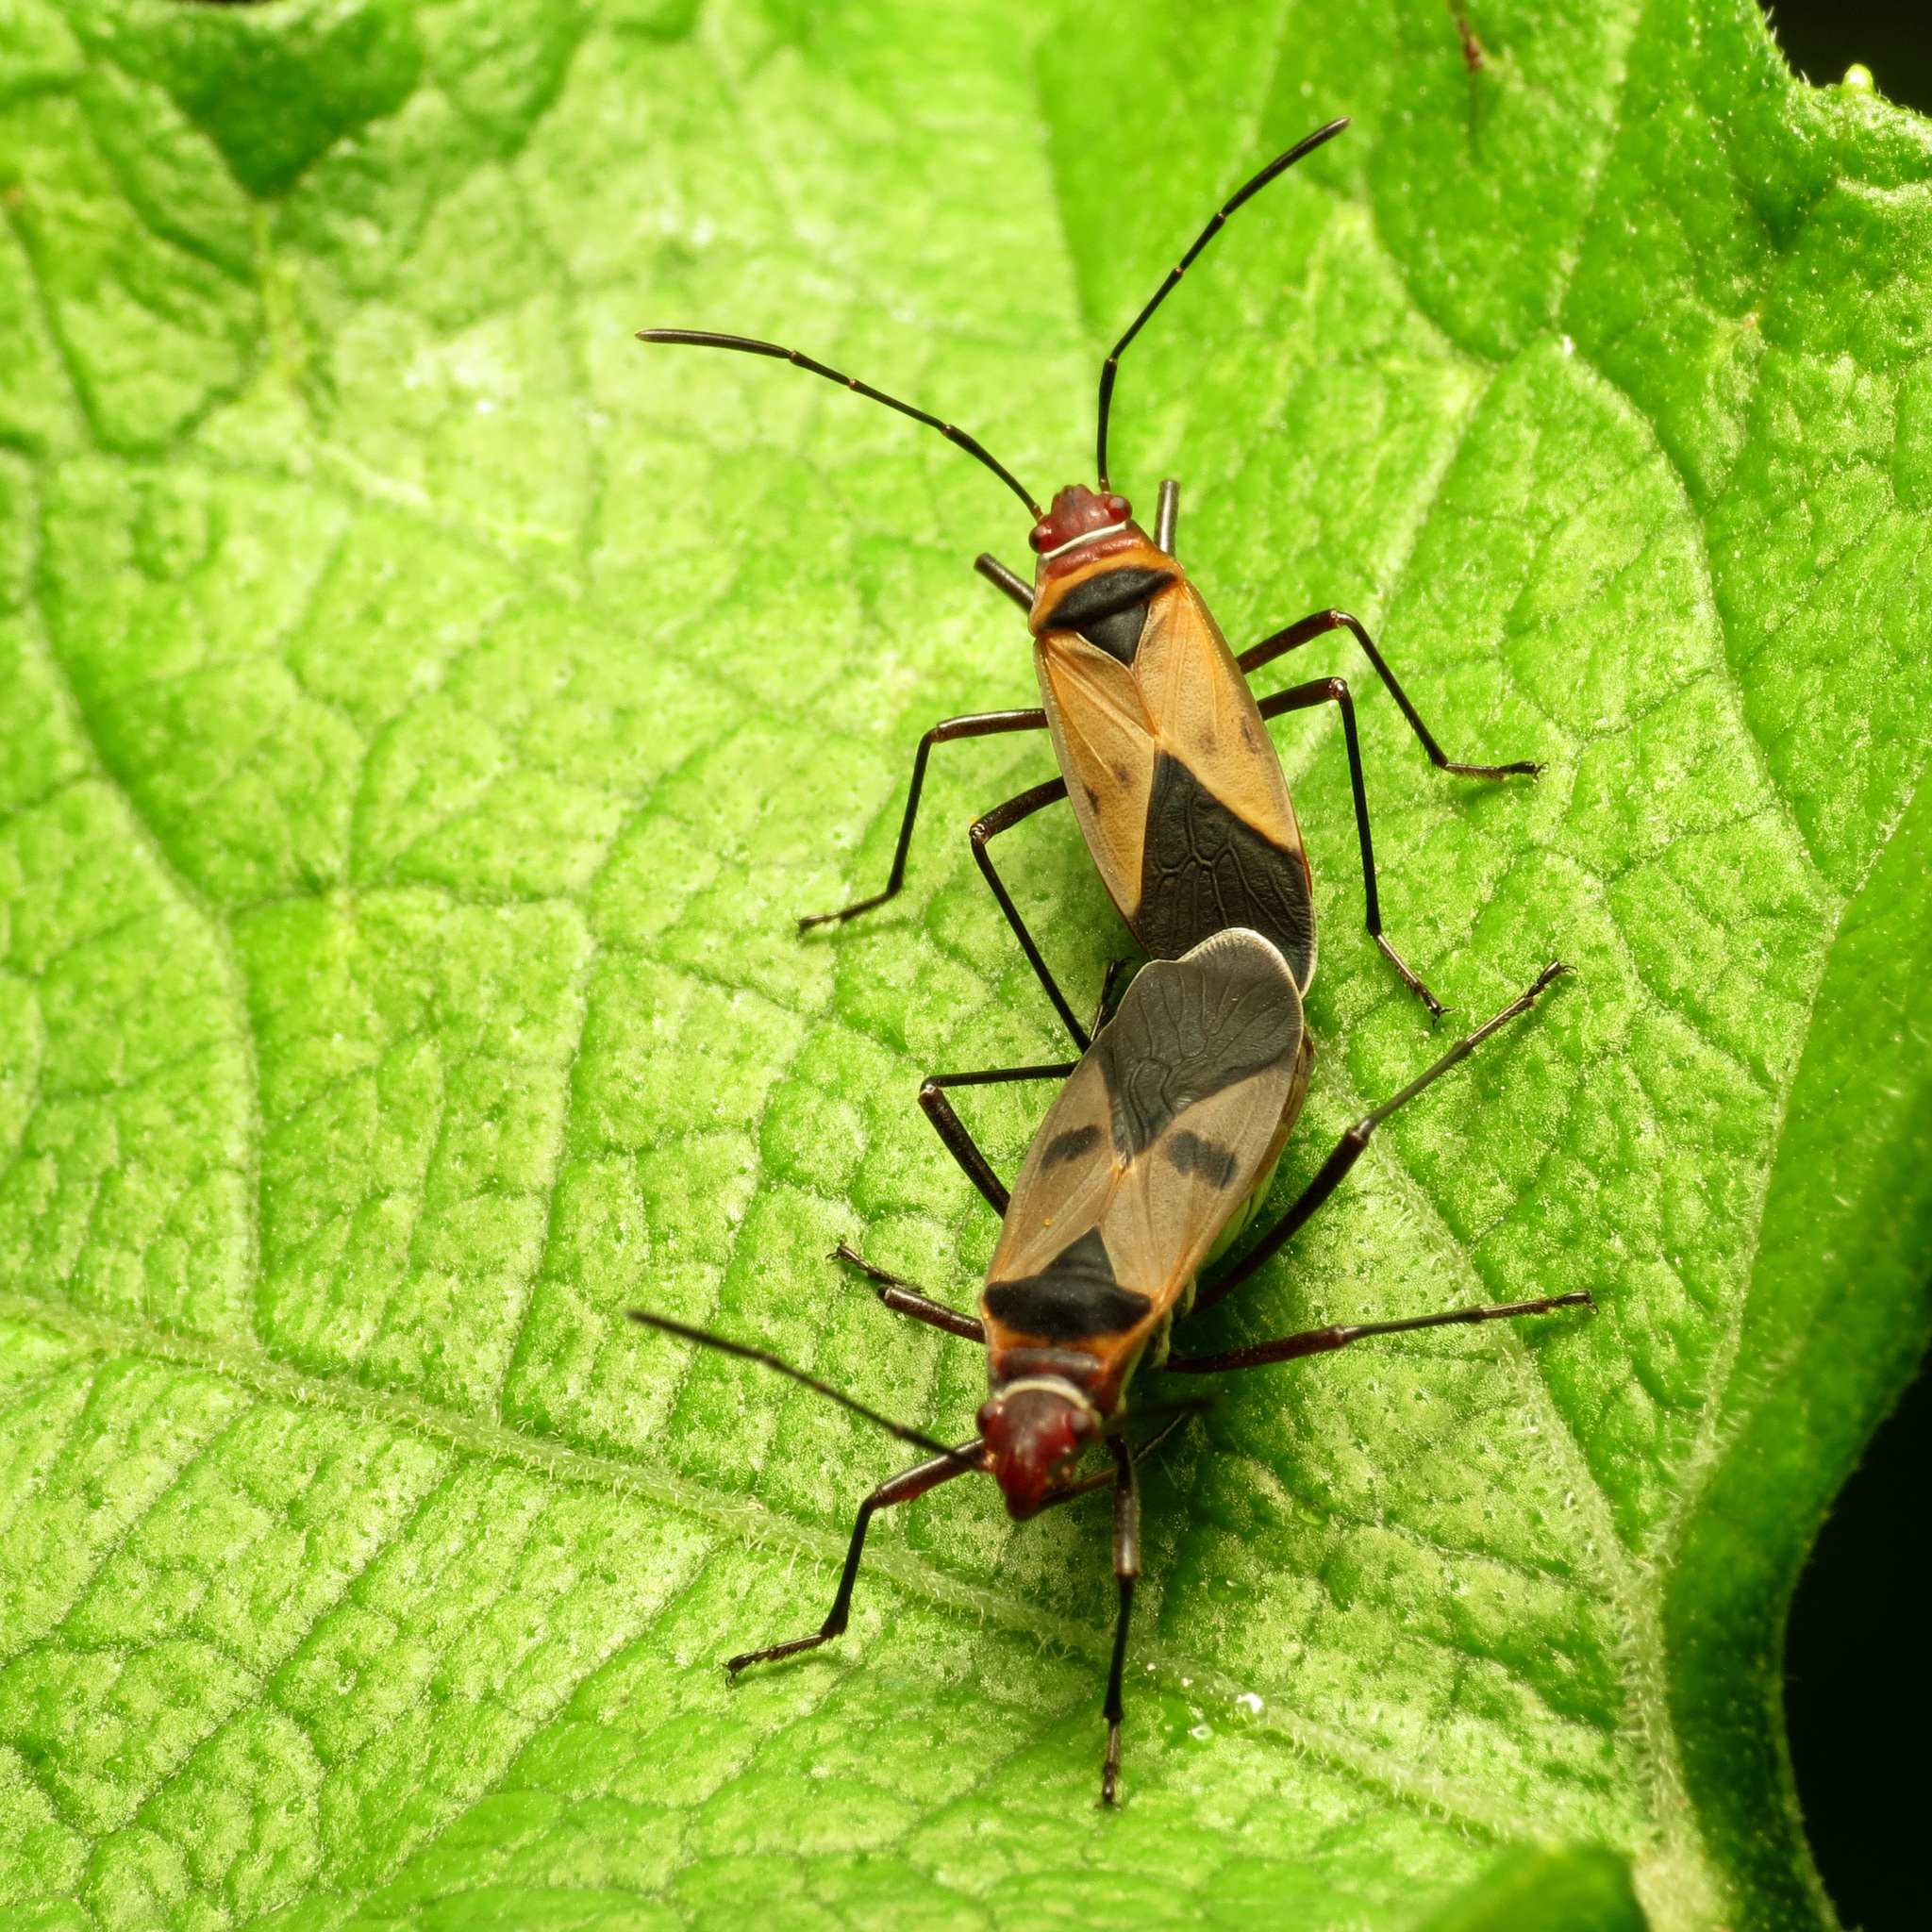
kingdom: Animalia
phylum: Arthropoda
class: Insecta
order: Hemiptera
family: Pyrrhocoridae
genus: Dysdercus
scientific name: Dysdercus mimus
